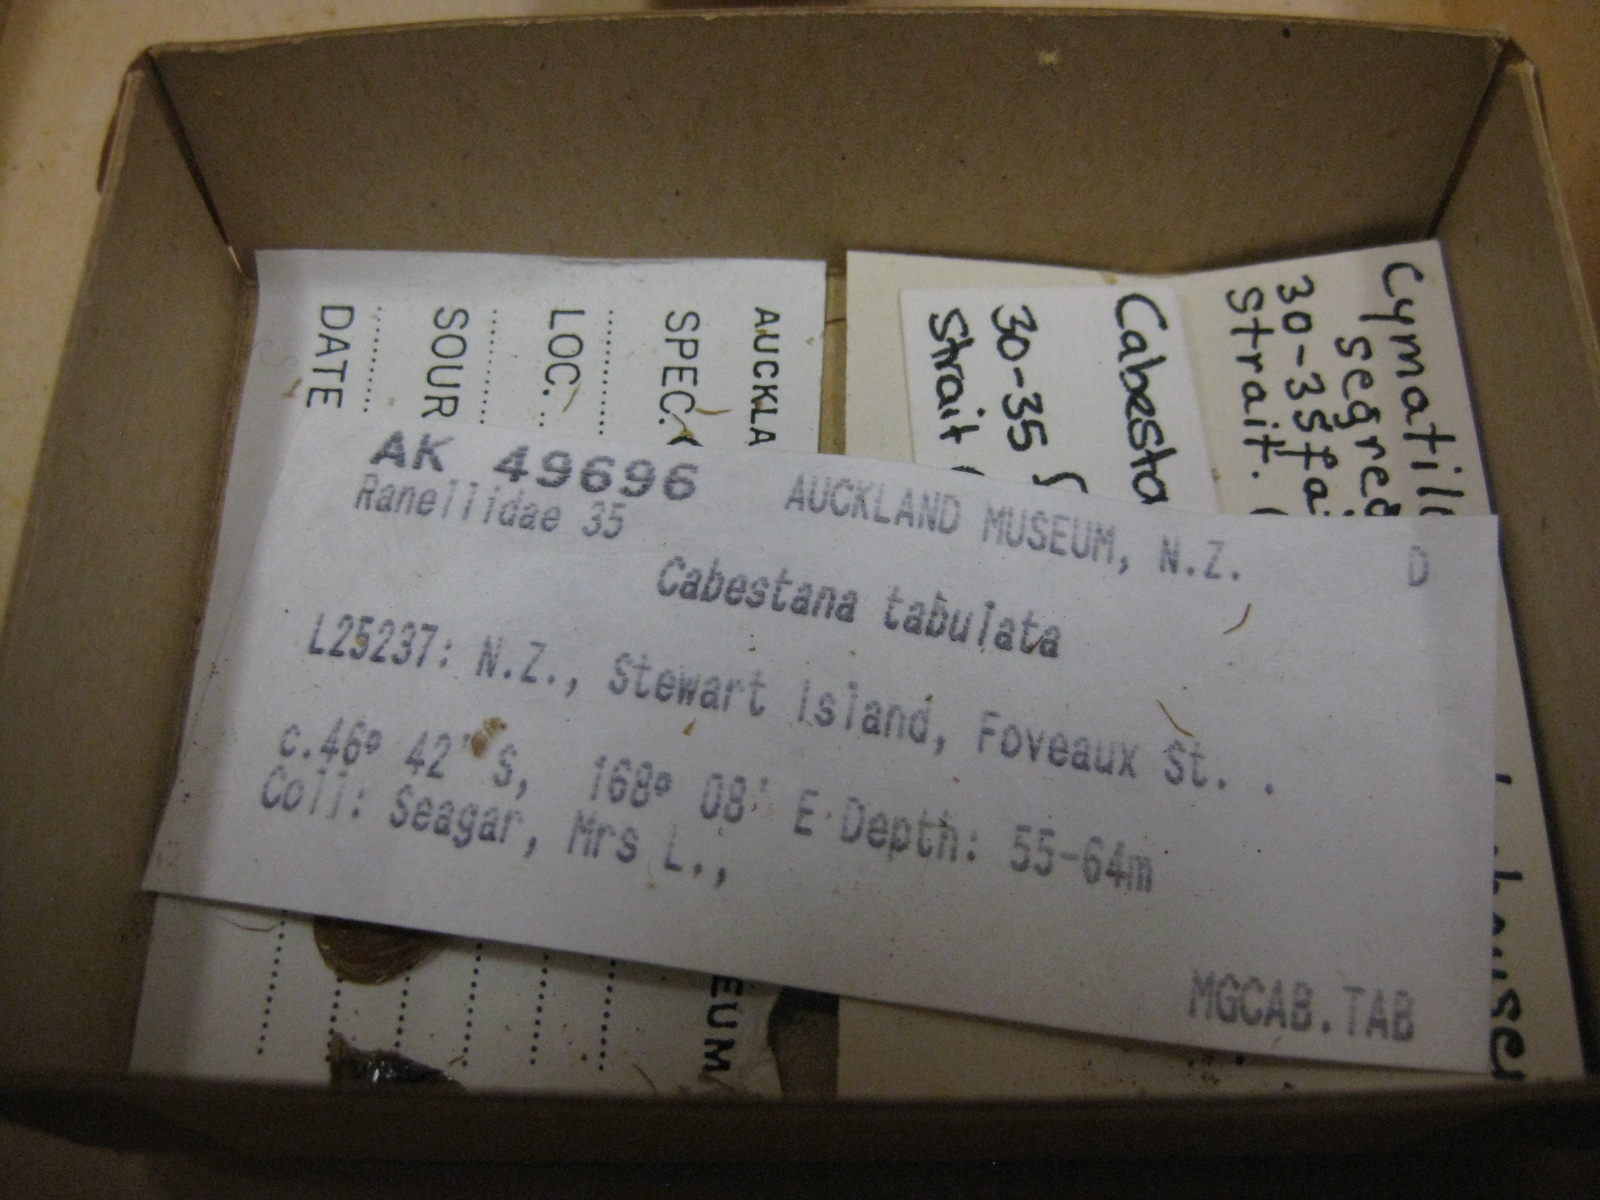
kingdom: Animalia
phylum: Mollusca
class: Gastropoda
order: Littorinimorpha
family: Cymatiidae
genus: Cabestana
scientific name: Cabestana tabulata
